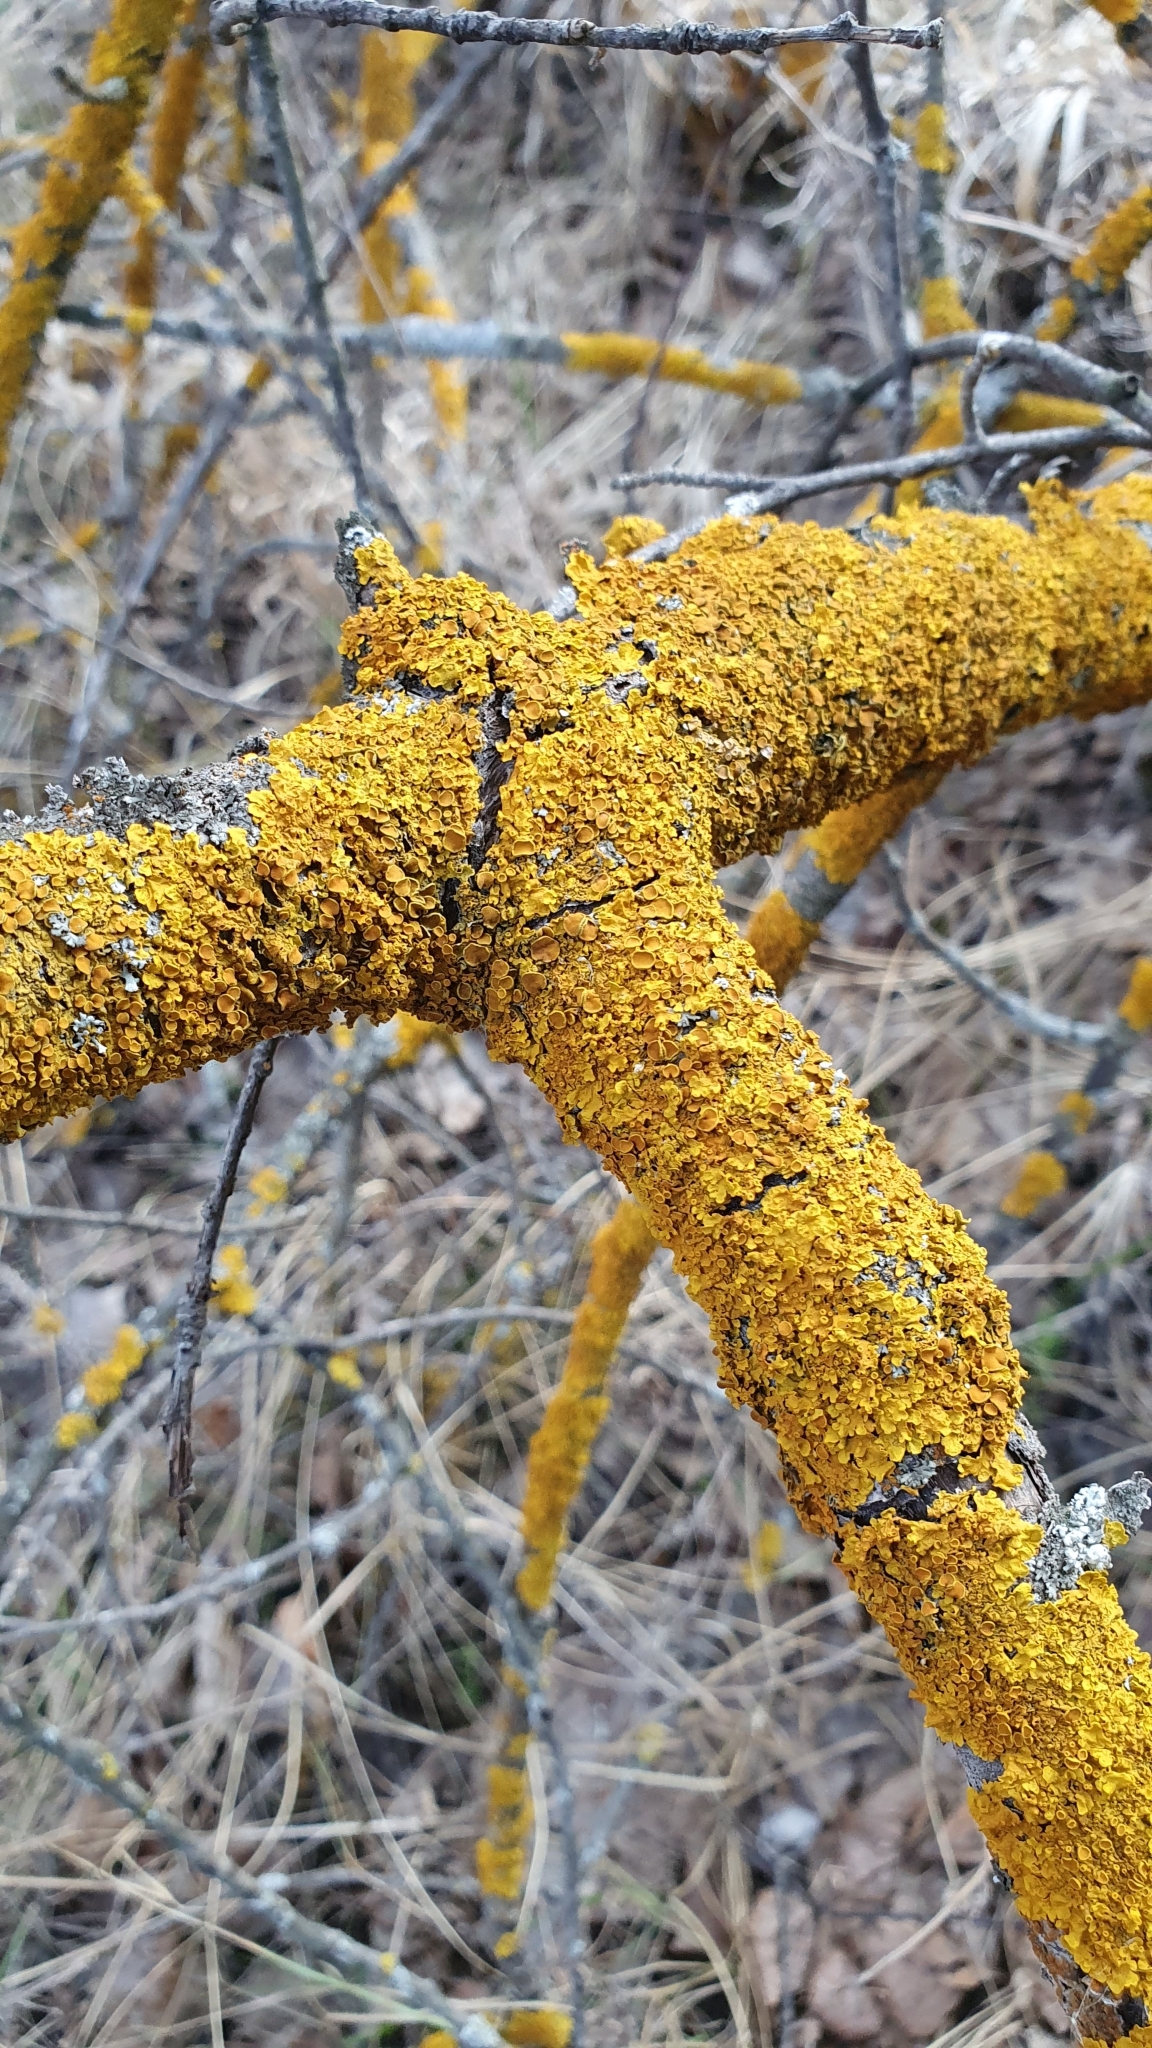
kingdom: Fungi
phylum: Ascomycota
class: Lecanoromycetes
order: Teloschistales
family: Teloschistaceae
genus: Xanthoria
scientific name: Xanthoria parietina
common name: Common orange lichen
